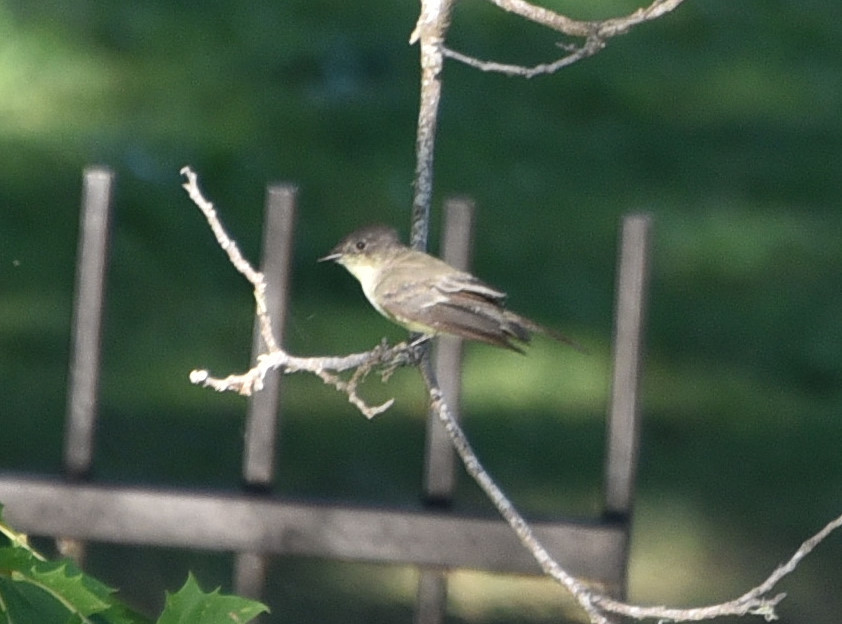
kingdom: Animalia
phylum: Chordata
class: Aves
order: Passeriformes
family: Tyrannidae
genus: Sayornis
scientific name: Sayornis phoebe
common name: Eastern phoebe
